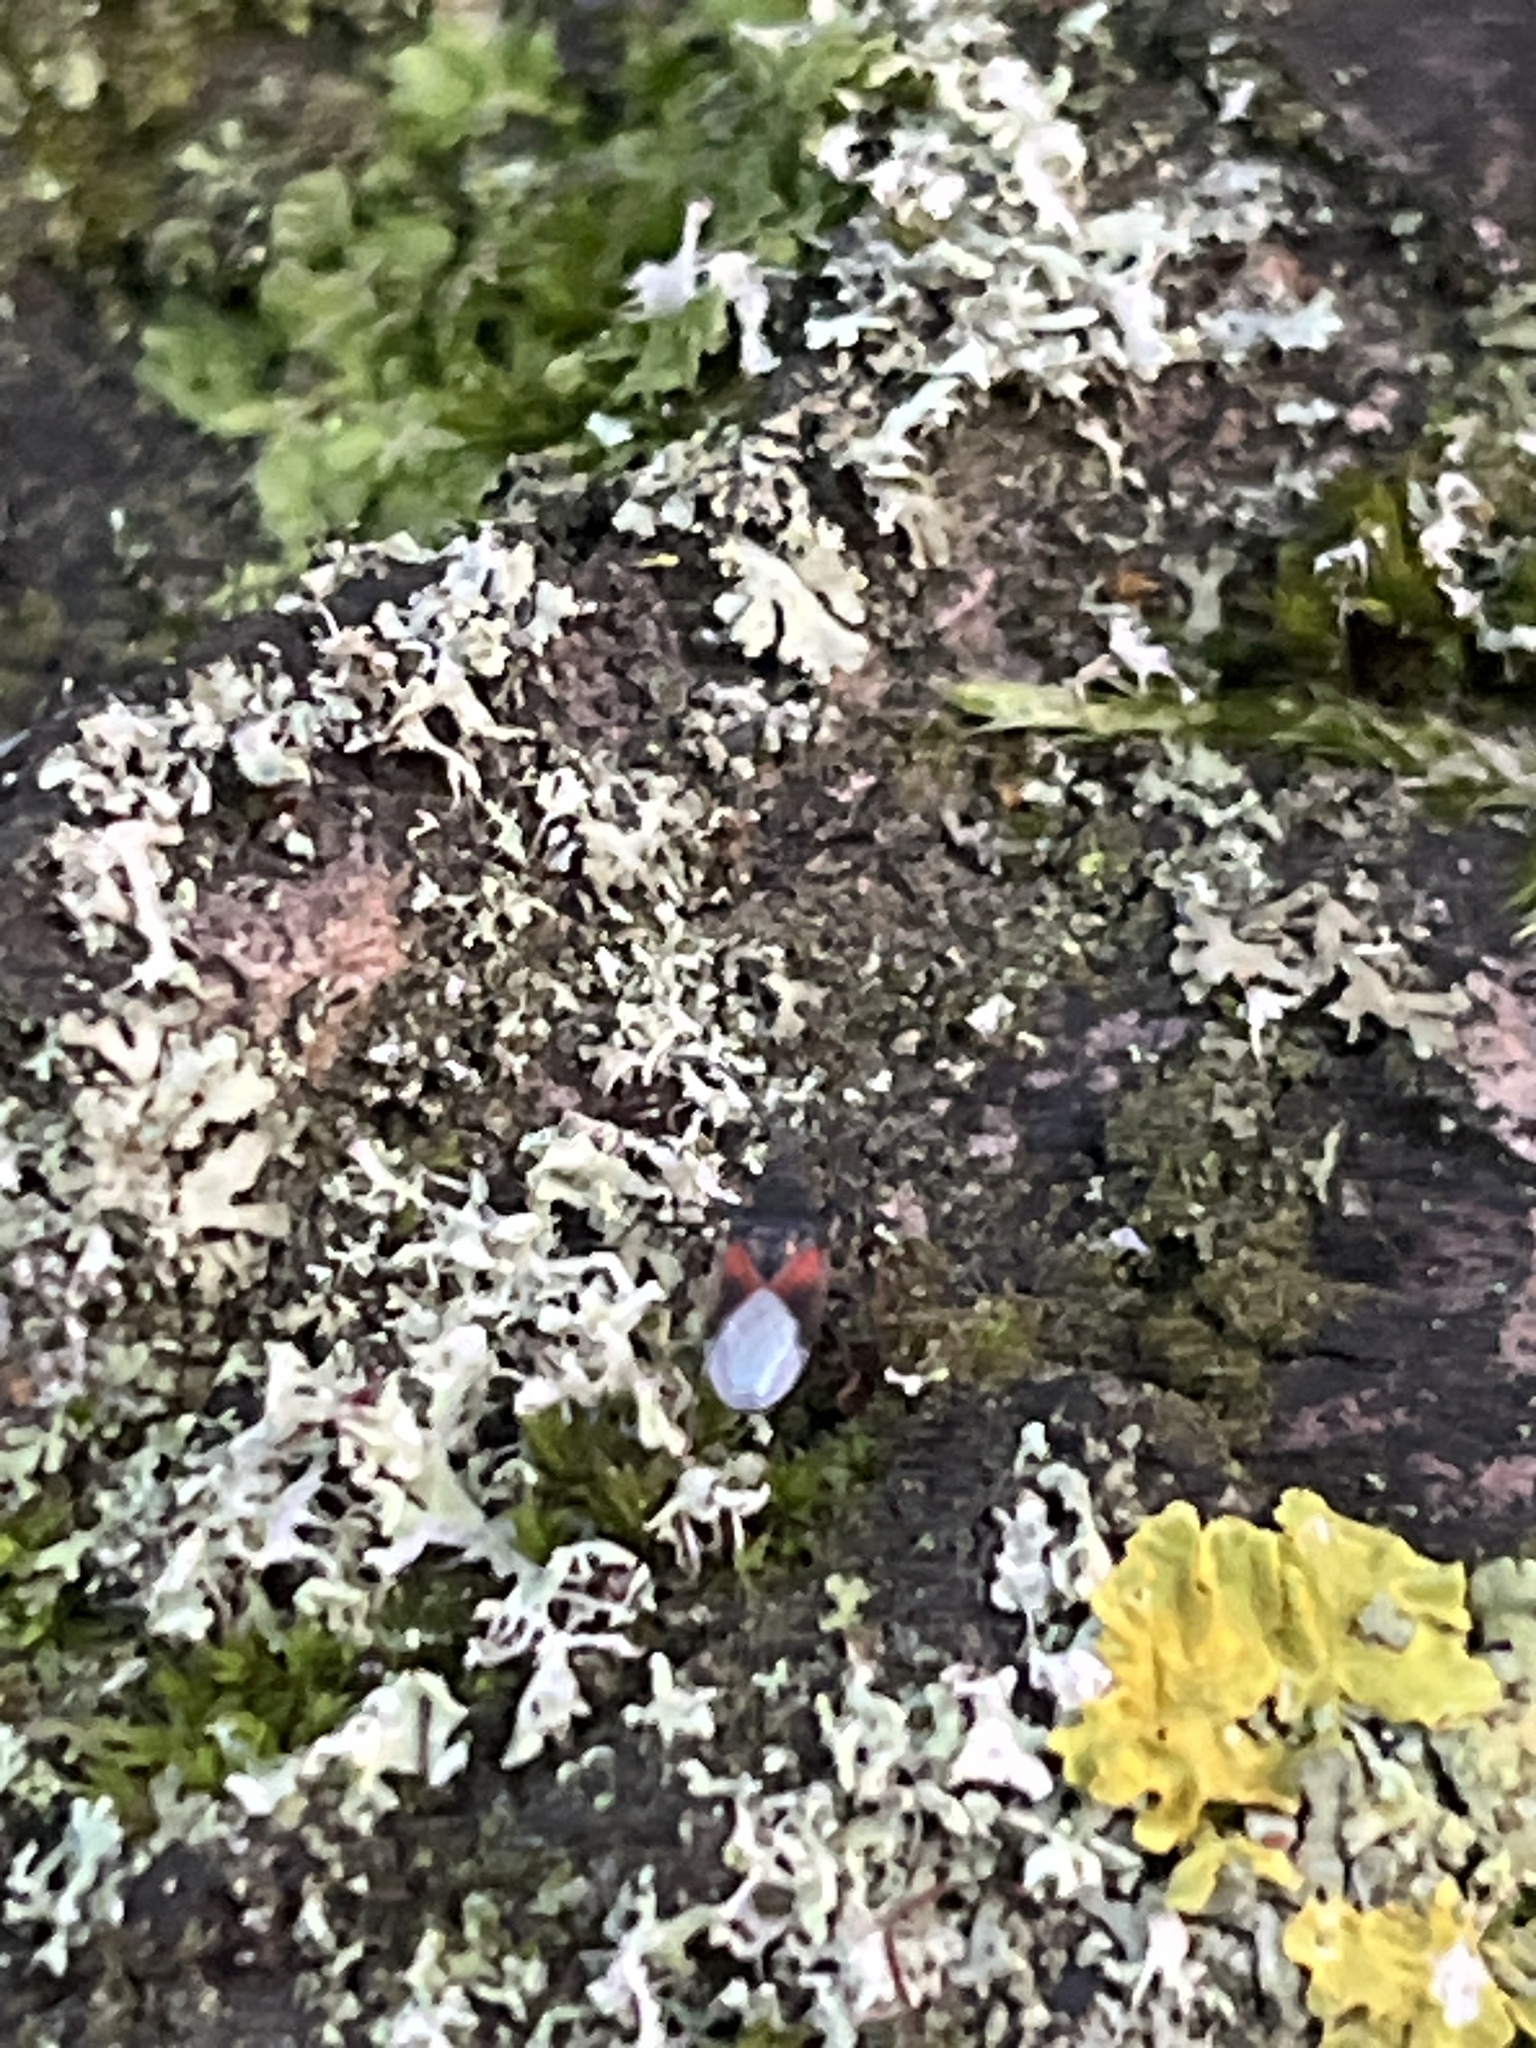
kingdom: Animalia
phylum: Arthropoda
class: Insecta
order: Hemiptera
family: Oxycarenidae
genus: Oxycarenus
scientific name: Oxycarenus lavaterae
